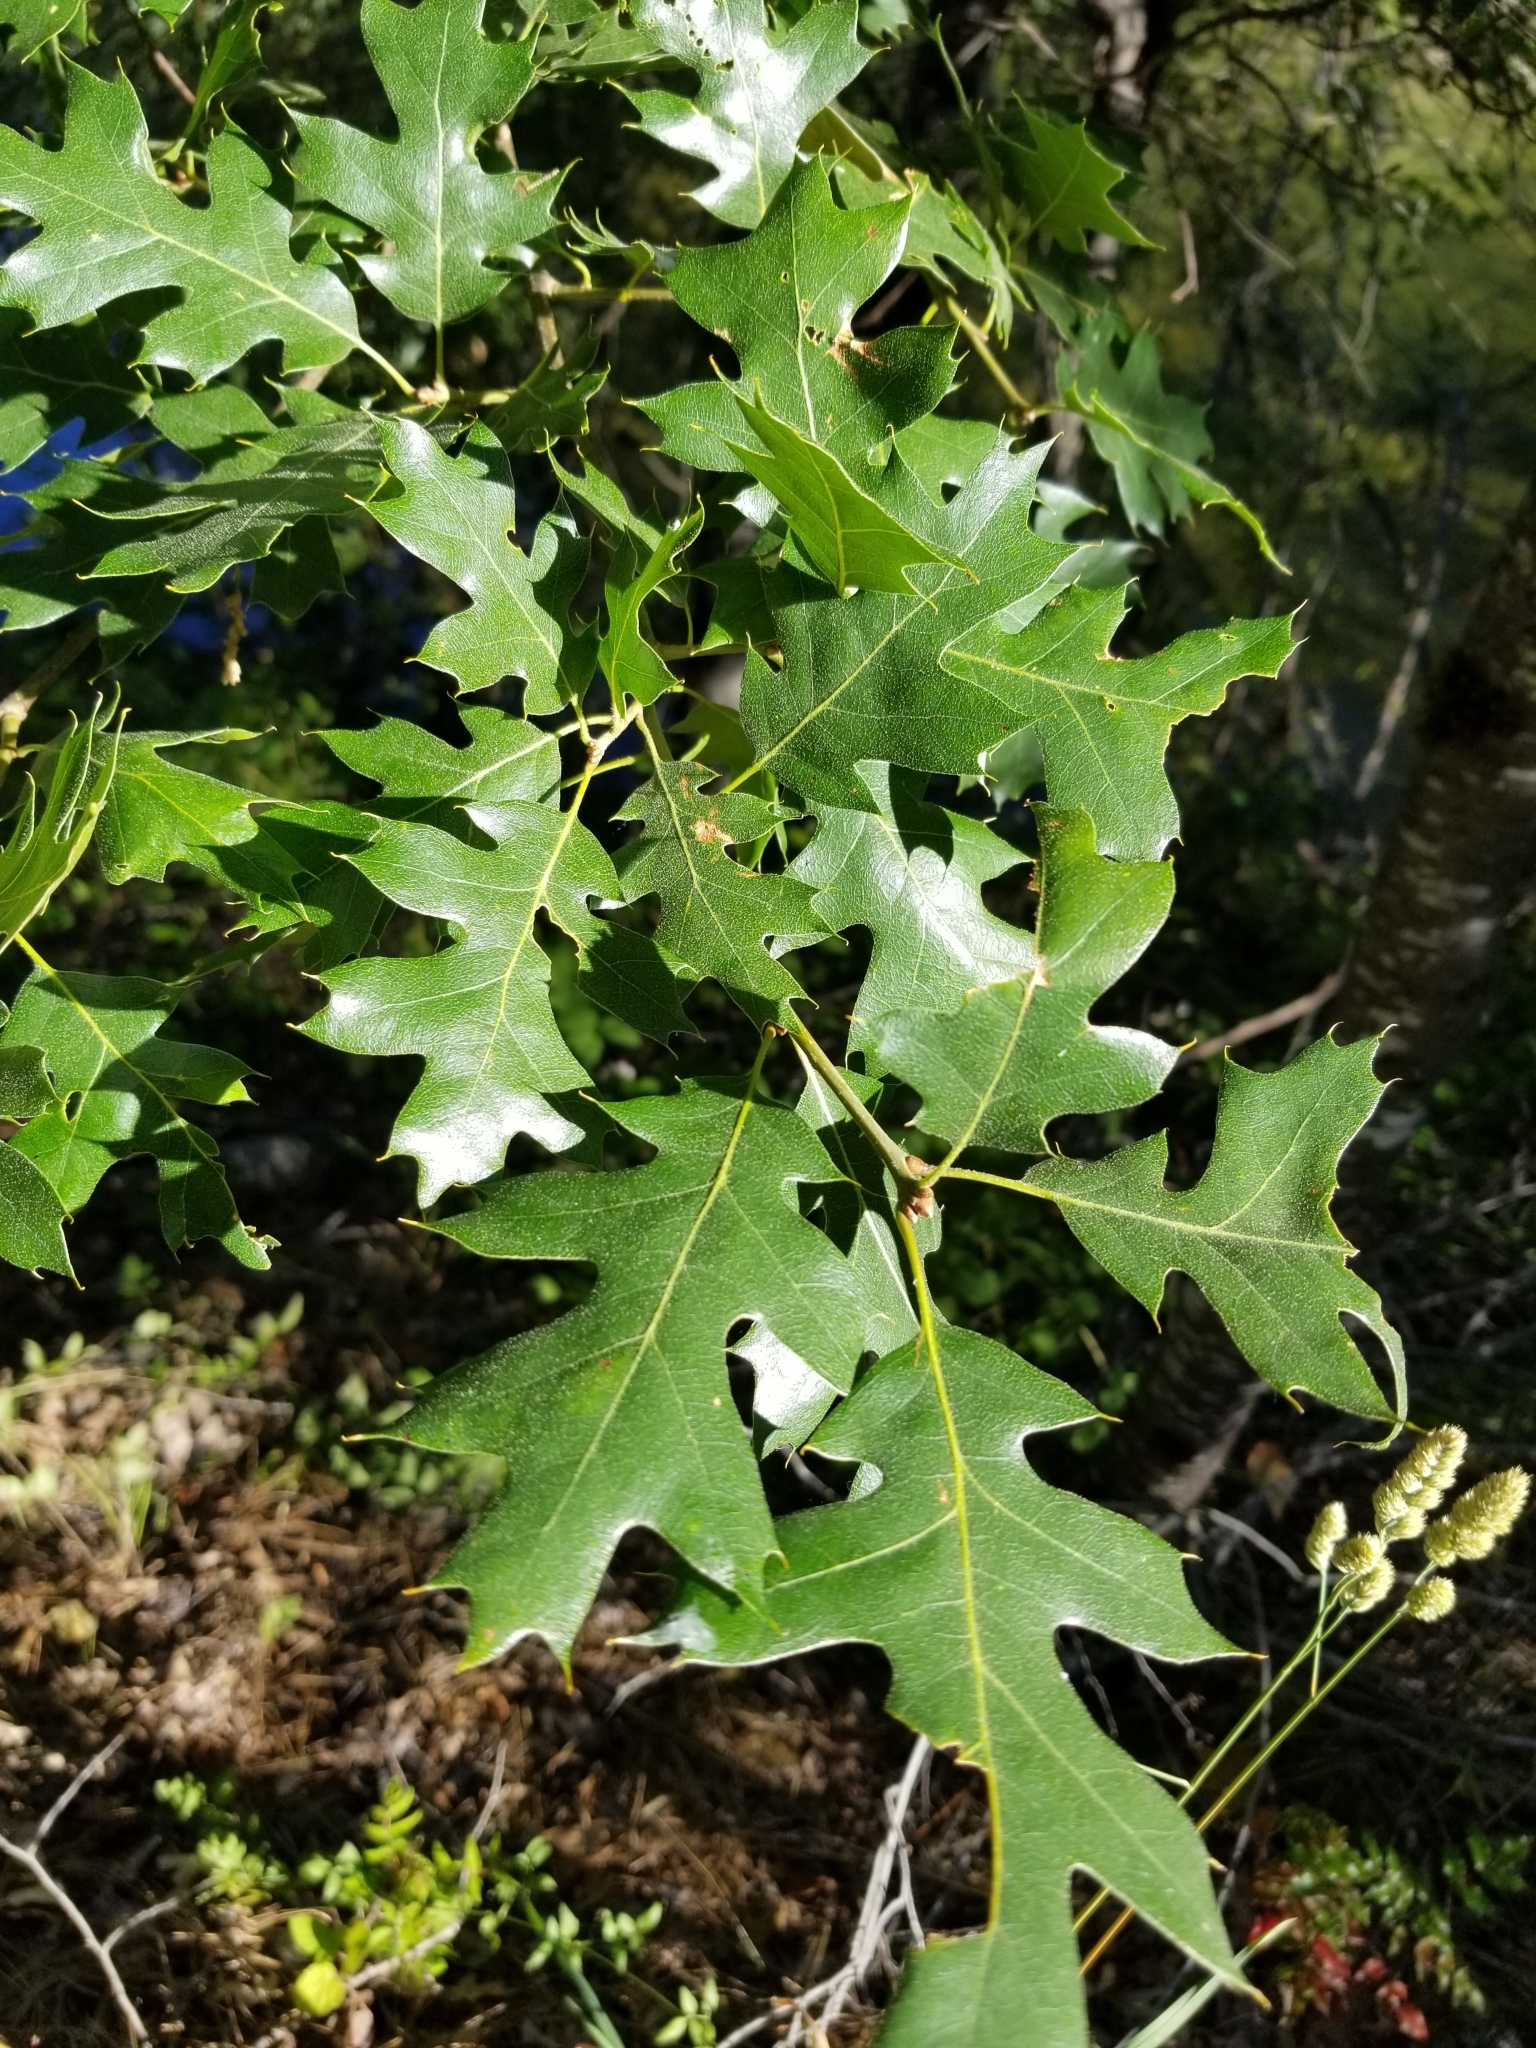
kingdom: Plantae
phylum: Tracheophyta
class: Magnoliopsida
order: Fagales
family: Fagaceae
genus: Quercus
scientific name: Quercus kelloggii
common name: California black oak
